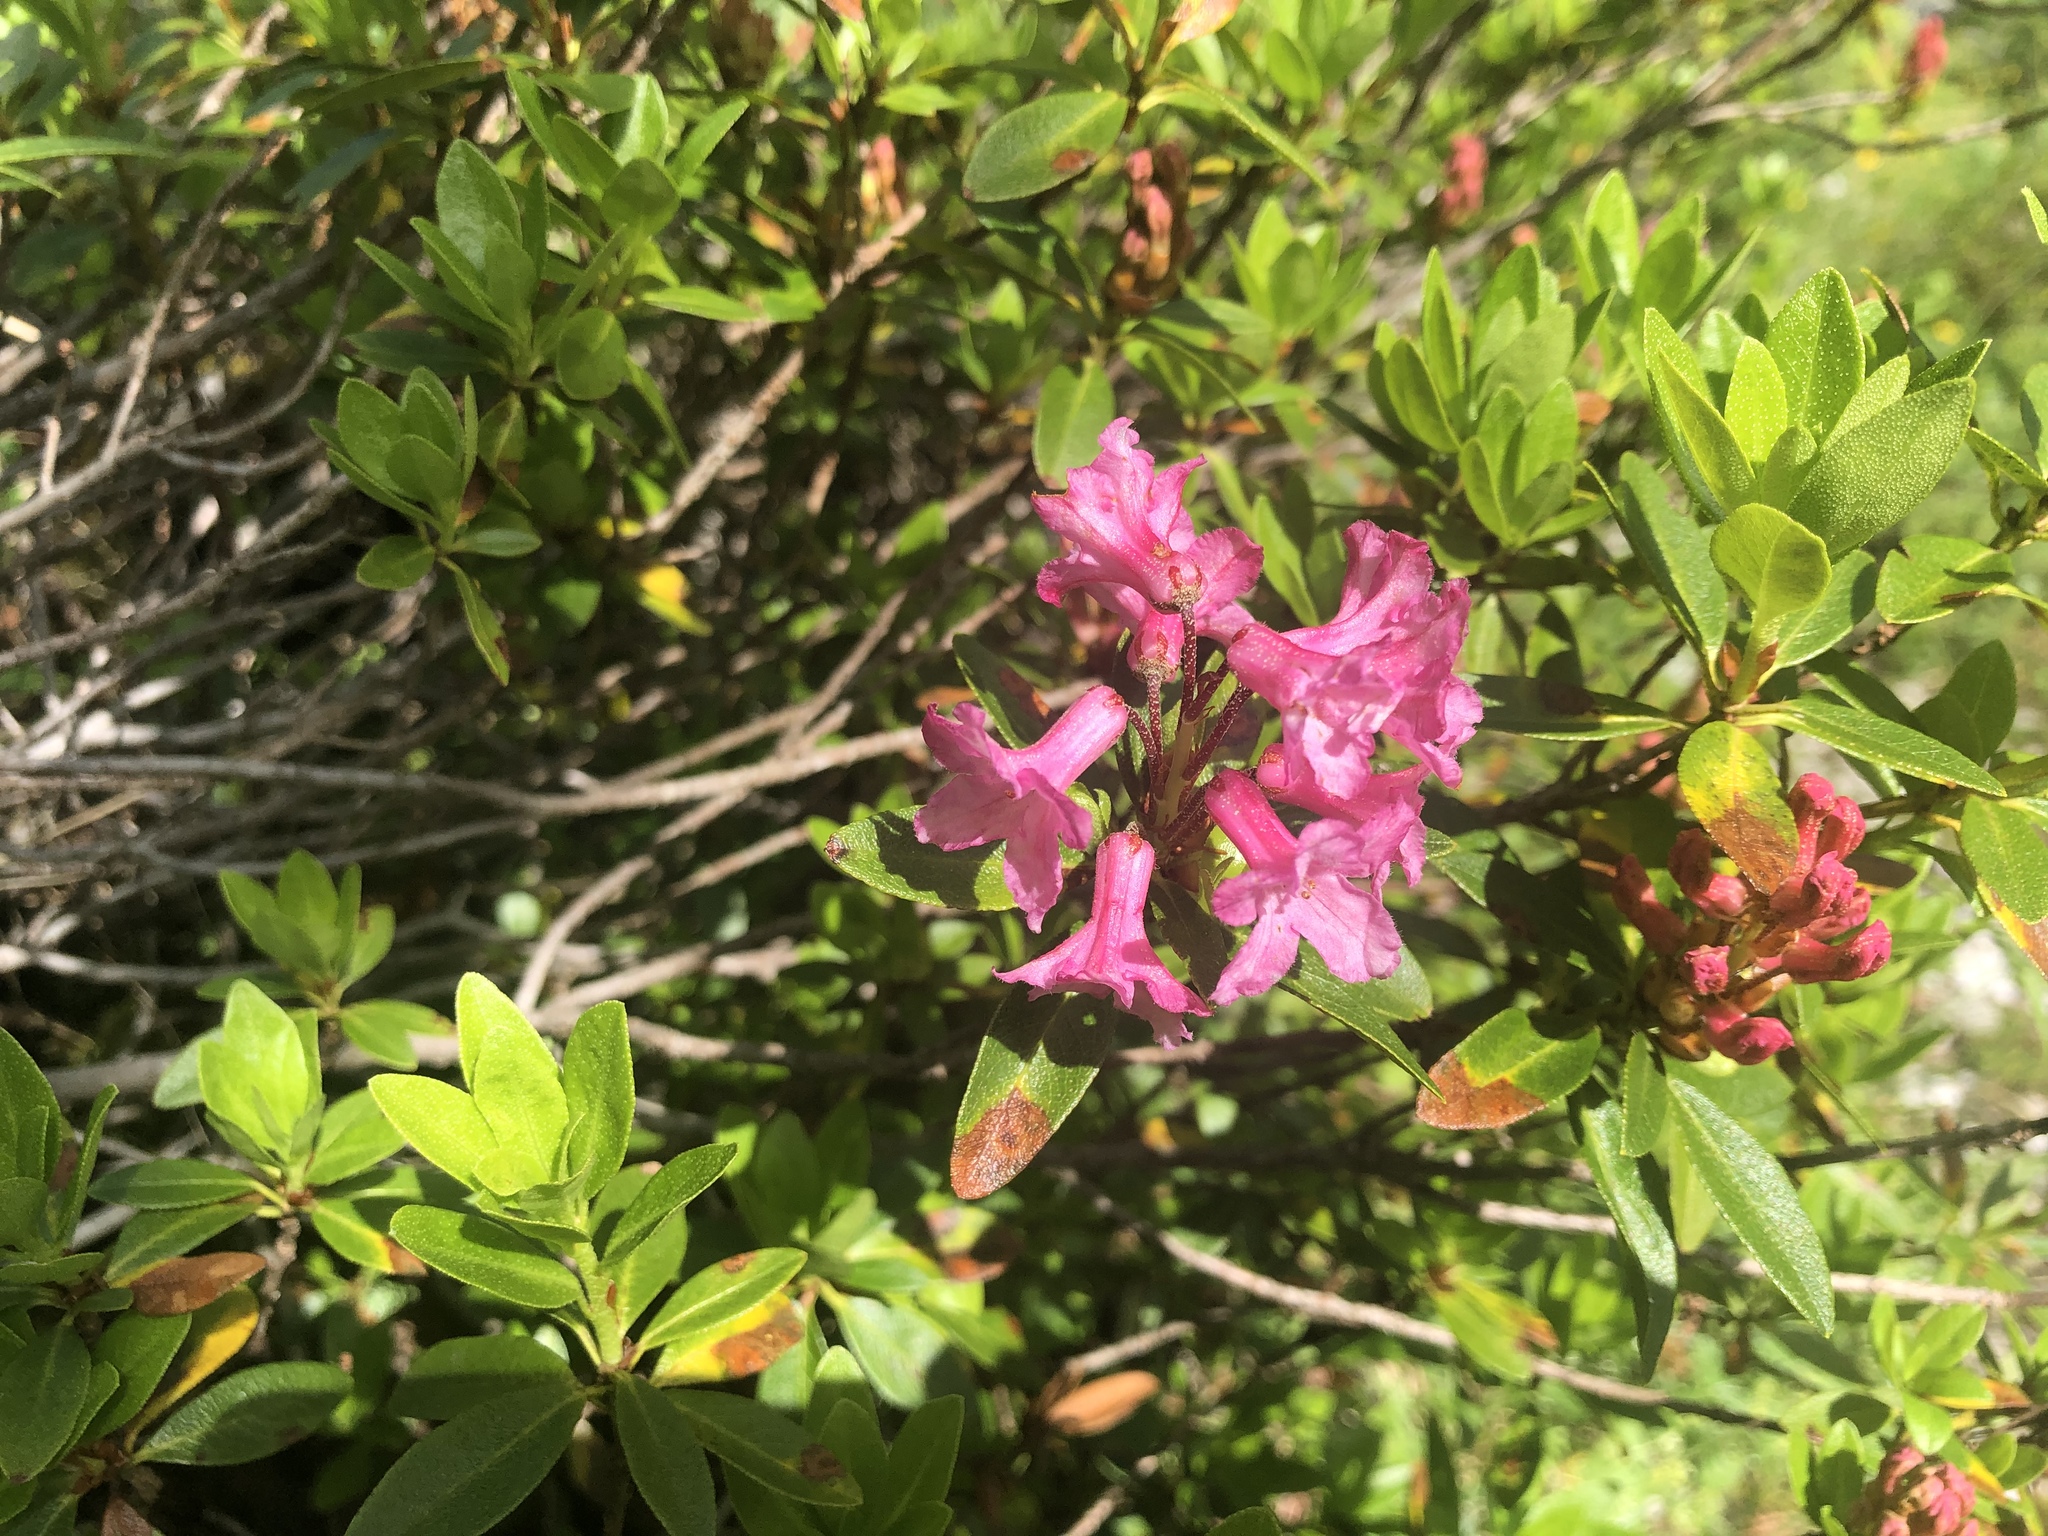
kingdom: Plantae
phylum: Tracheophyta
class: Magnoliopsida
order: Ericales
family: Ericaceae
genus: Rhododendron
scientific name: Rhododendron ferrugineum
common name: Alpenrose
